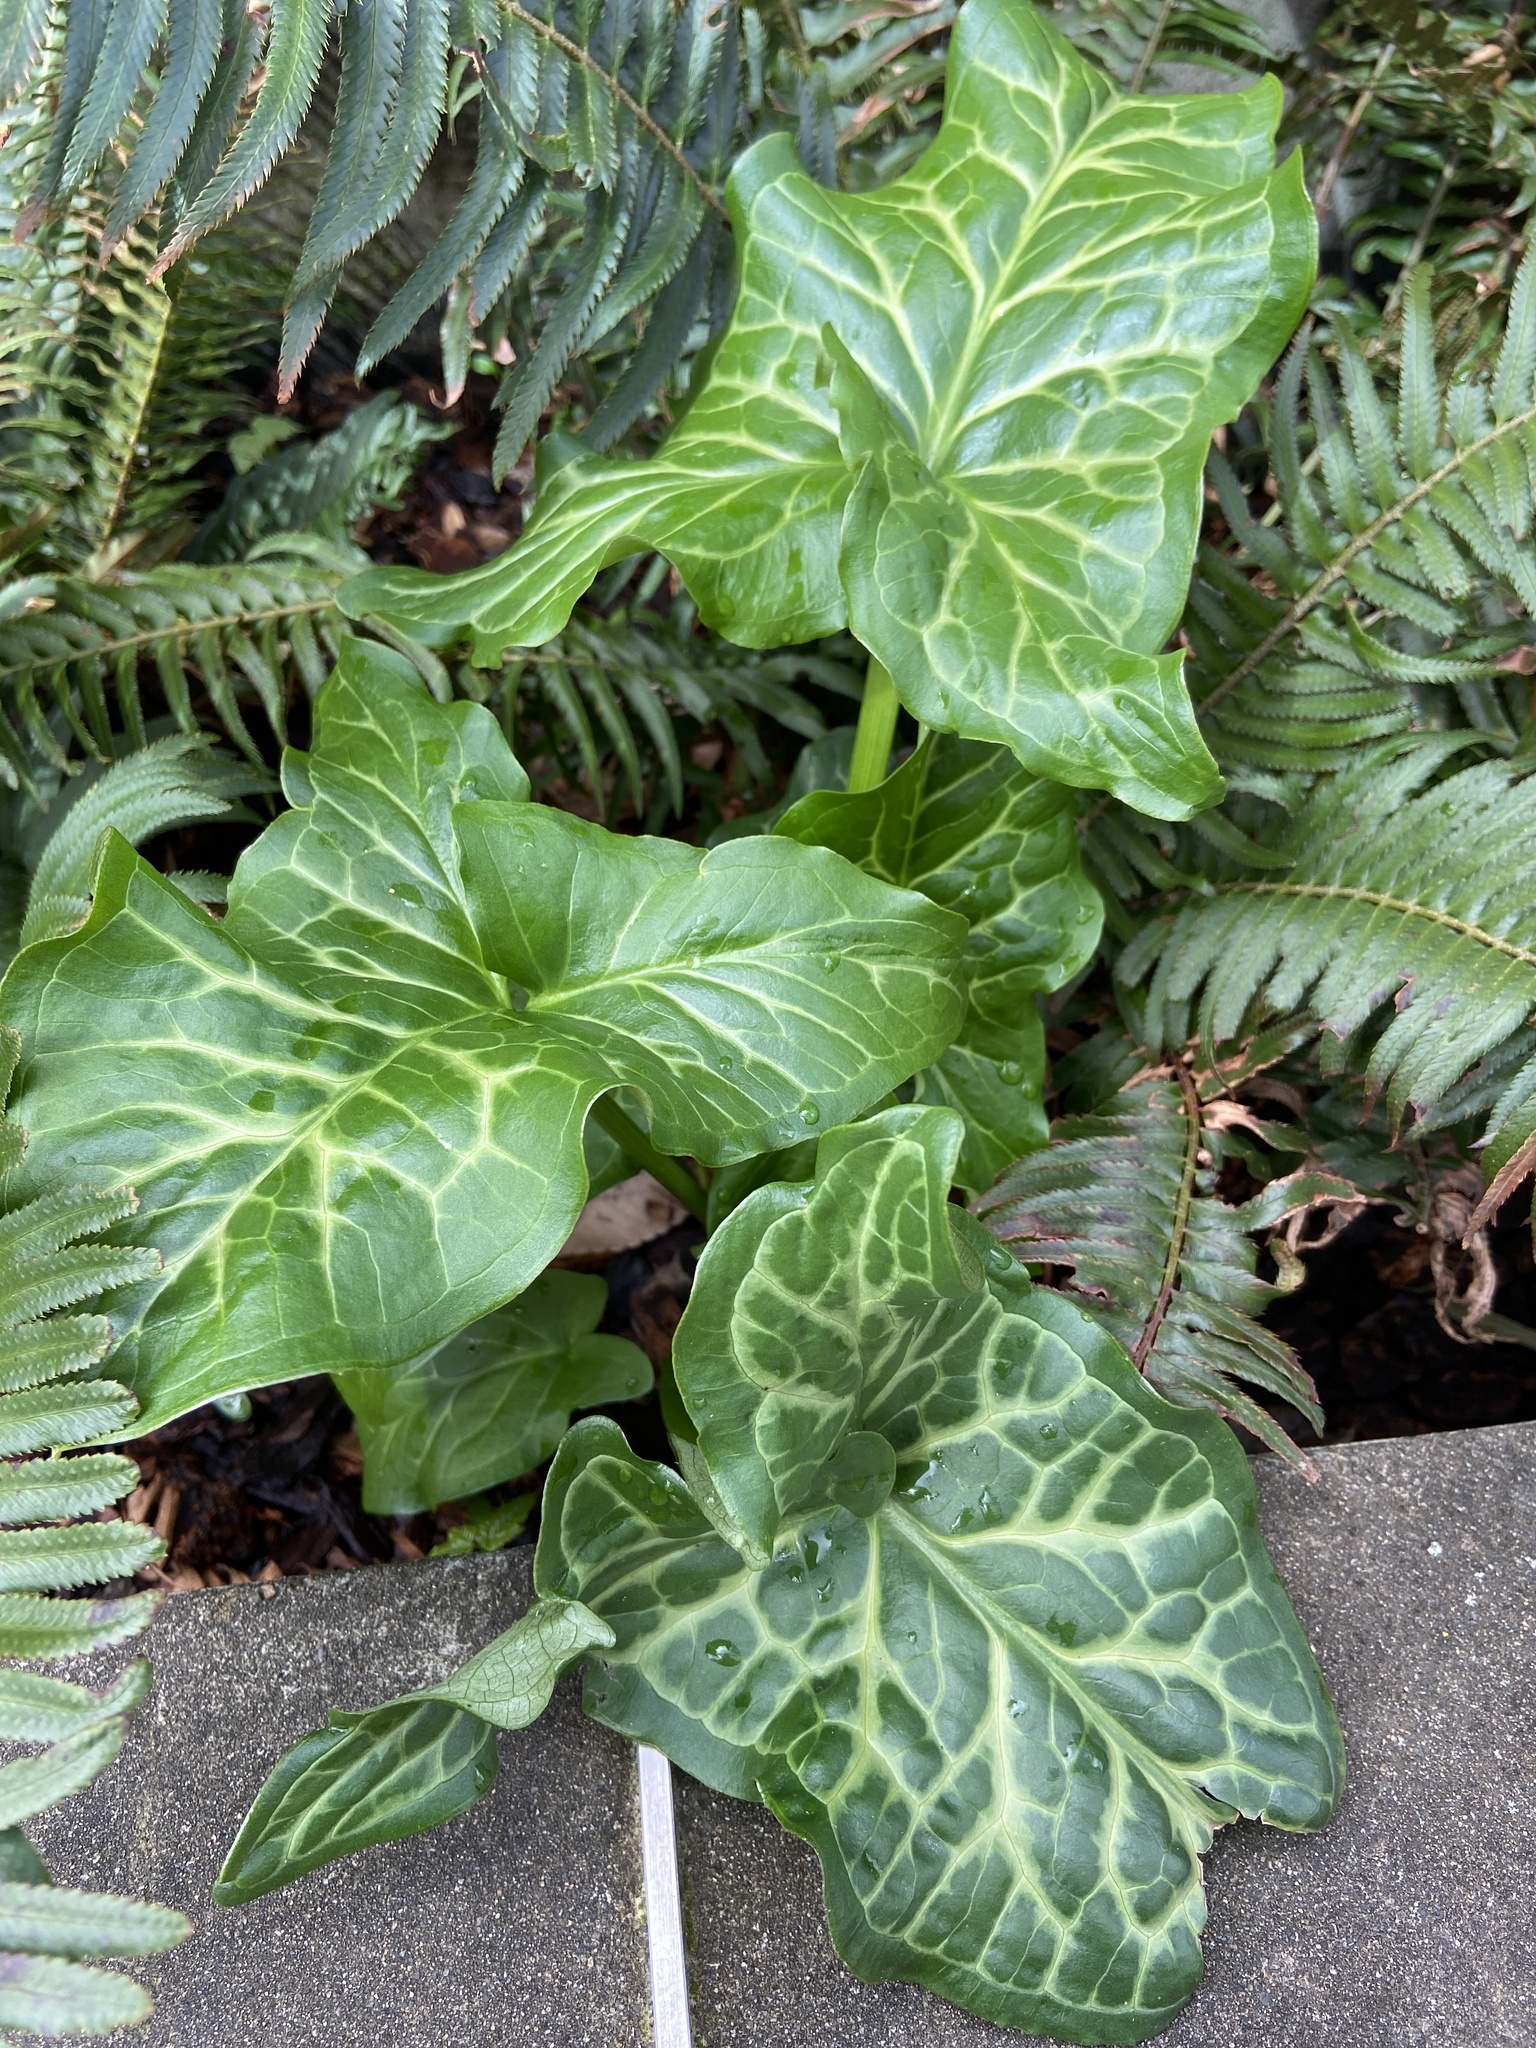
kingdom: Plantae
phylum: Tracheophyta
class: Liliopsida
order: Alismatales
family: Araceae
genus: Arum
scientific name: Arum italicum
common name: Italian lords-and-ladies
